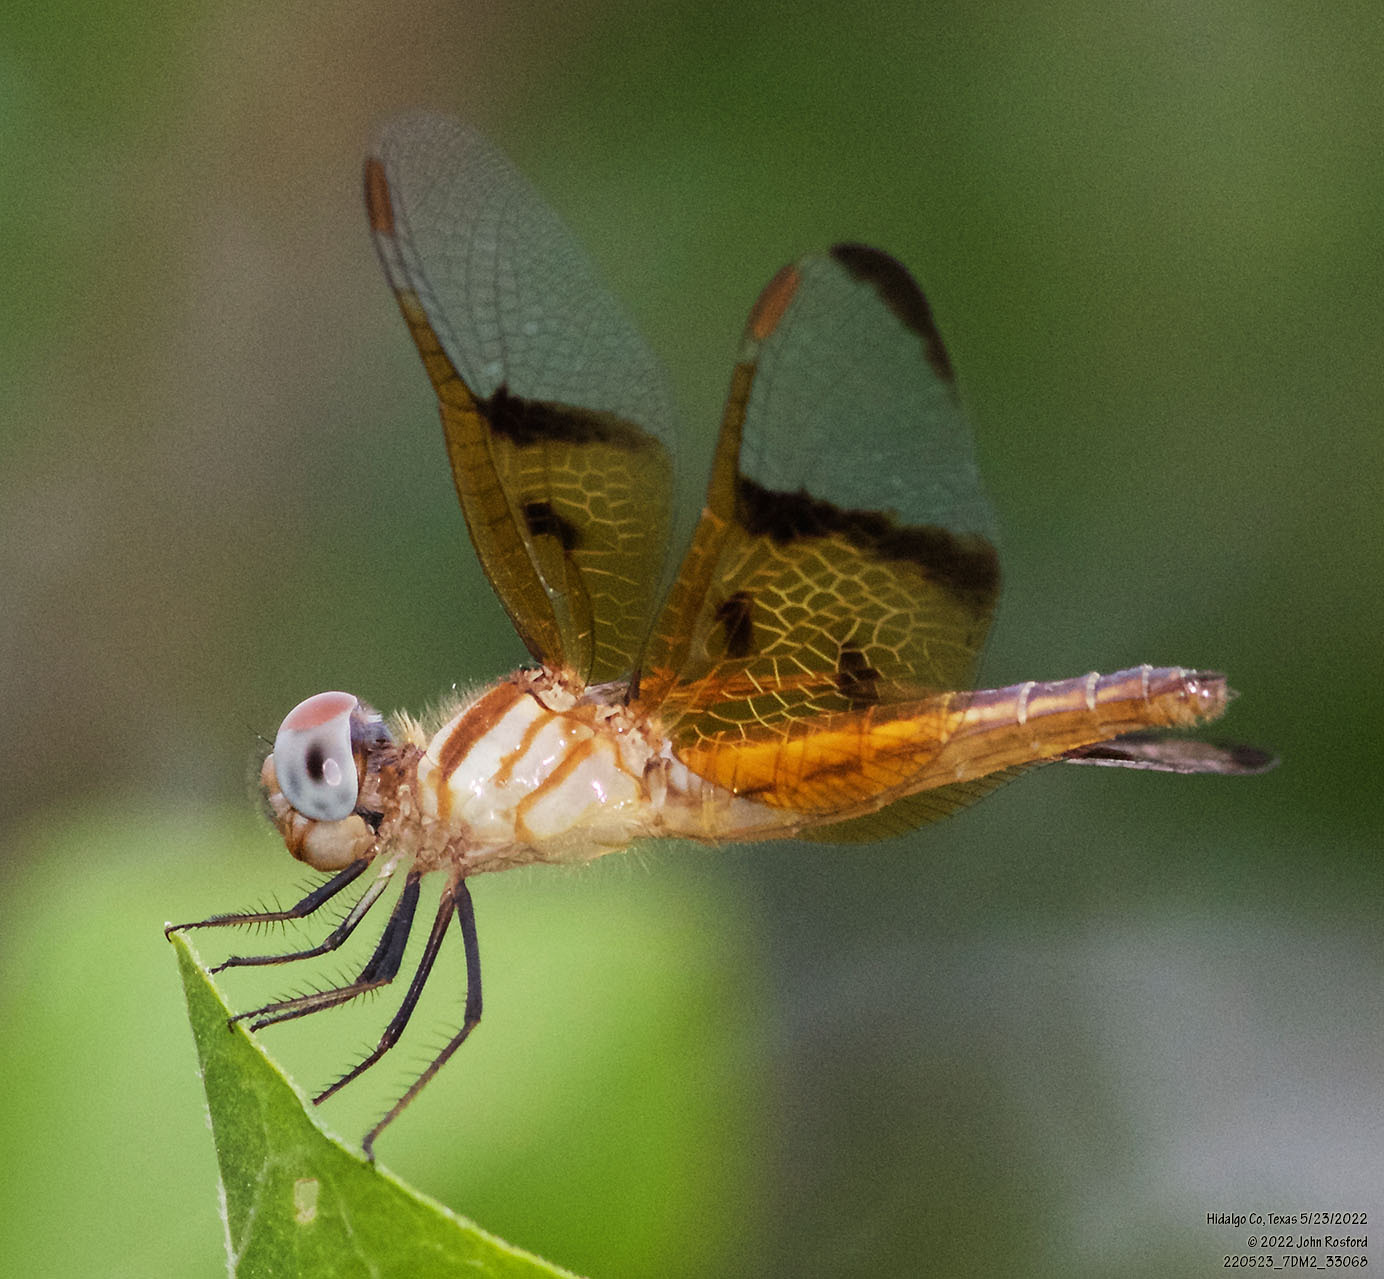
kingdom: Animalia
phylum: Arthropoda
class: Insecta
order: Odonata
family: Libellulidae
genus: Perithemis
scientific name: Perithemis domitia
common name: Slough amberwing
